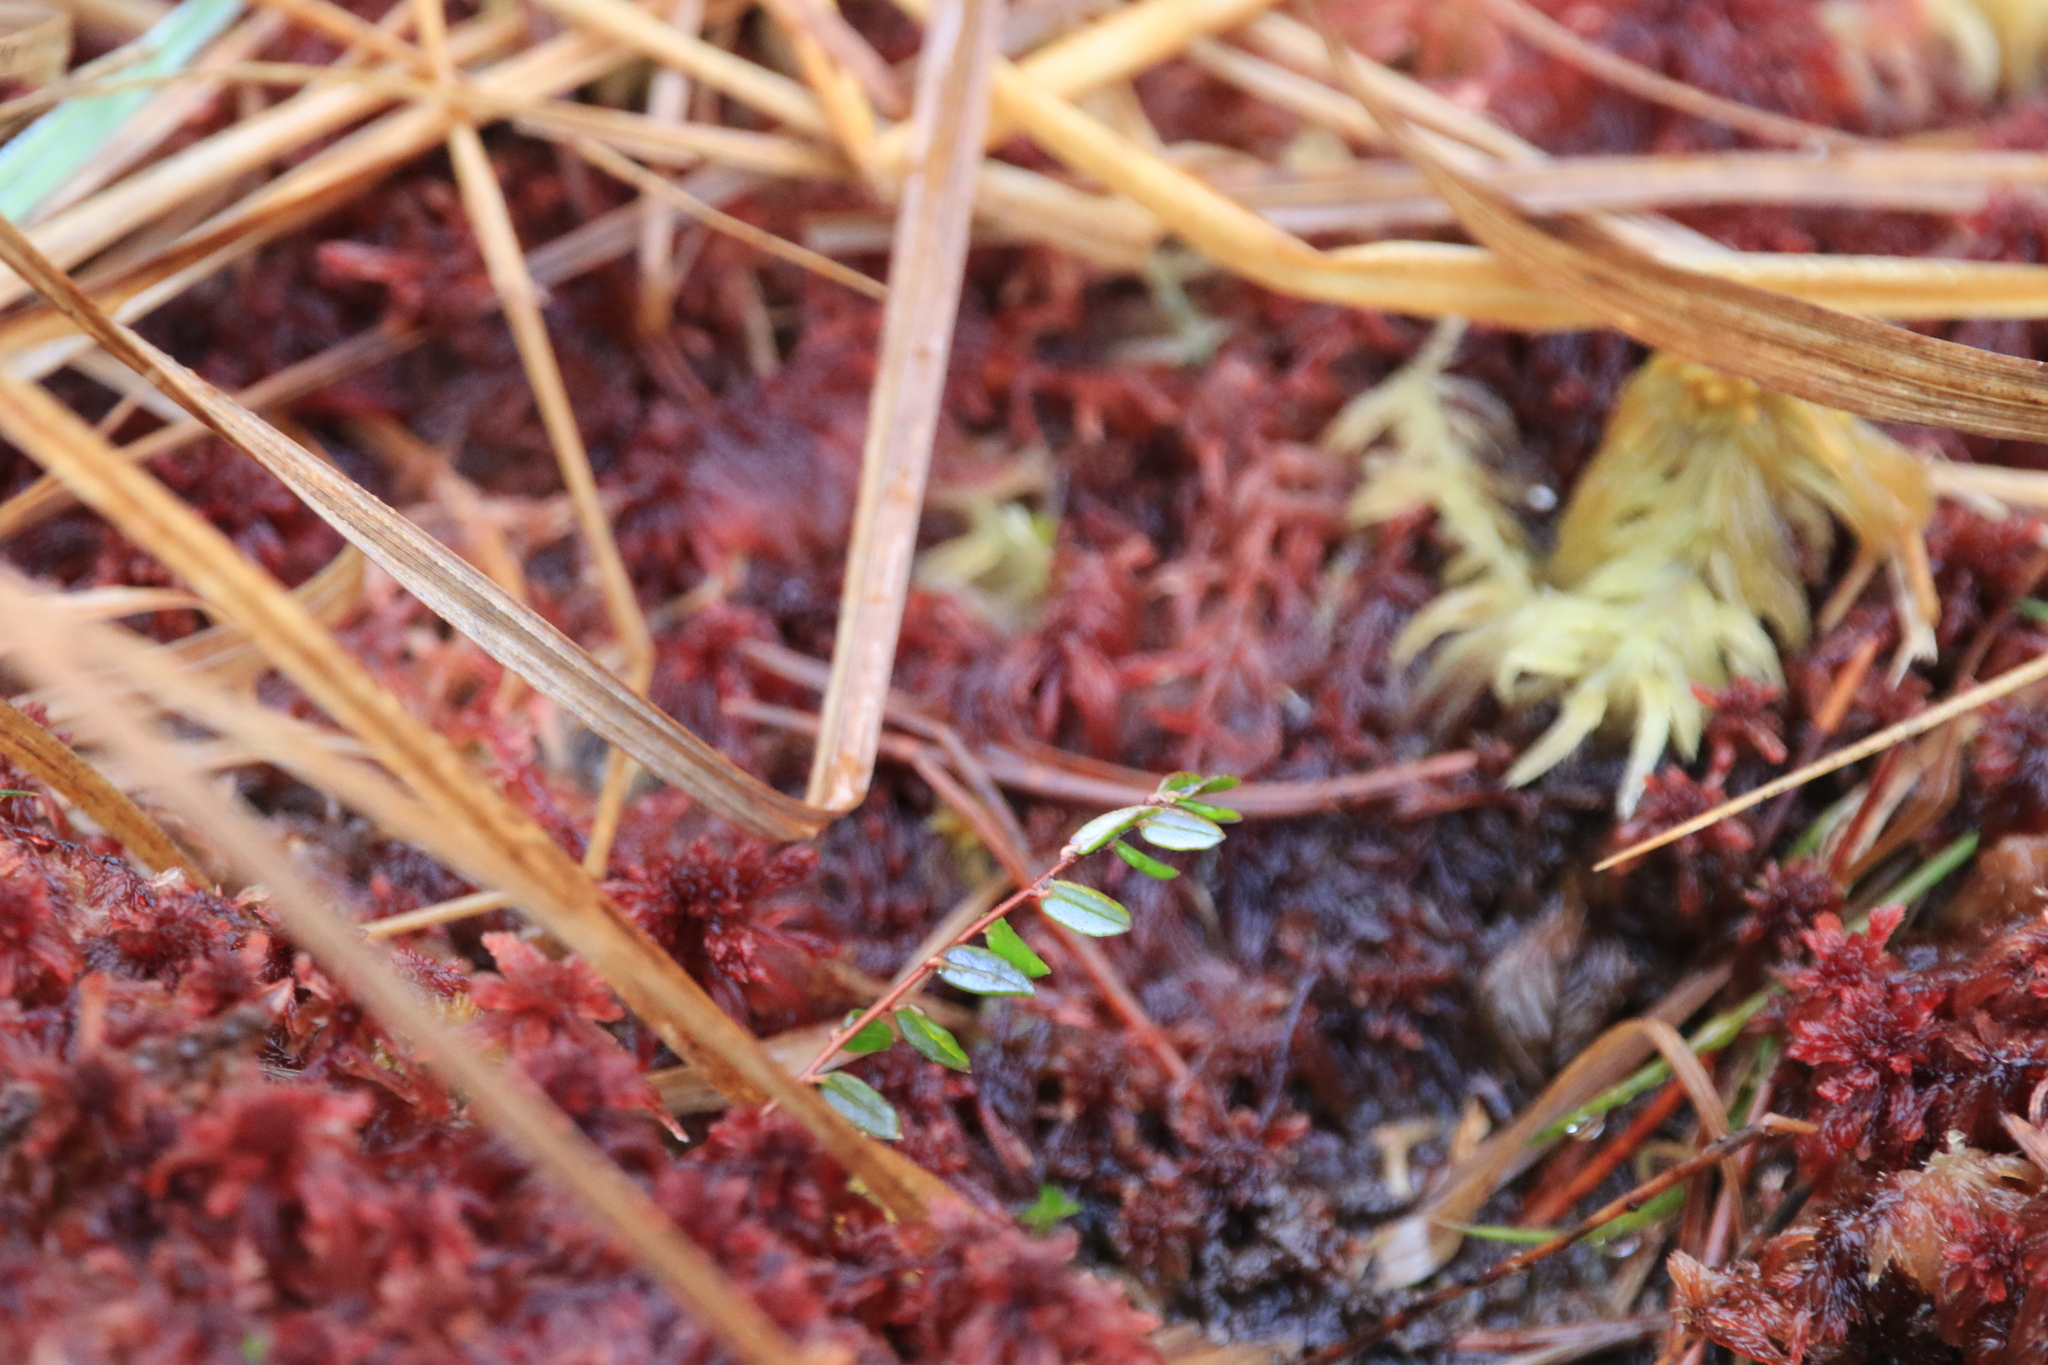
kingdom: Plantae
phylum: Tracheophyta
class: Magnoliopsida
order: Ericales
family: Ericaceae
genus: Vaccinium
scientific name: Vaccinium oxycoccos
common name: Cranberry
